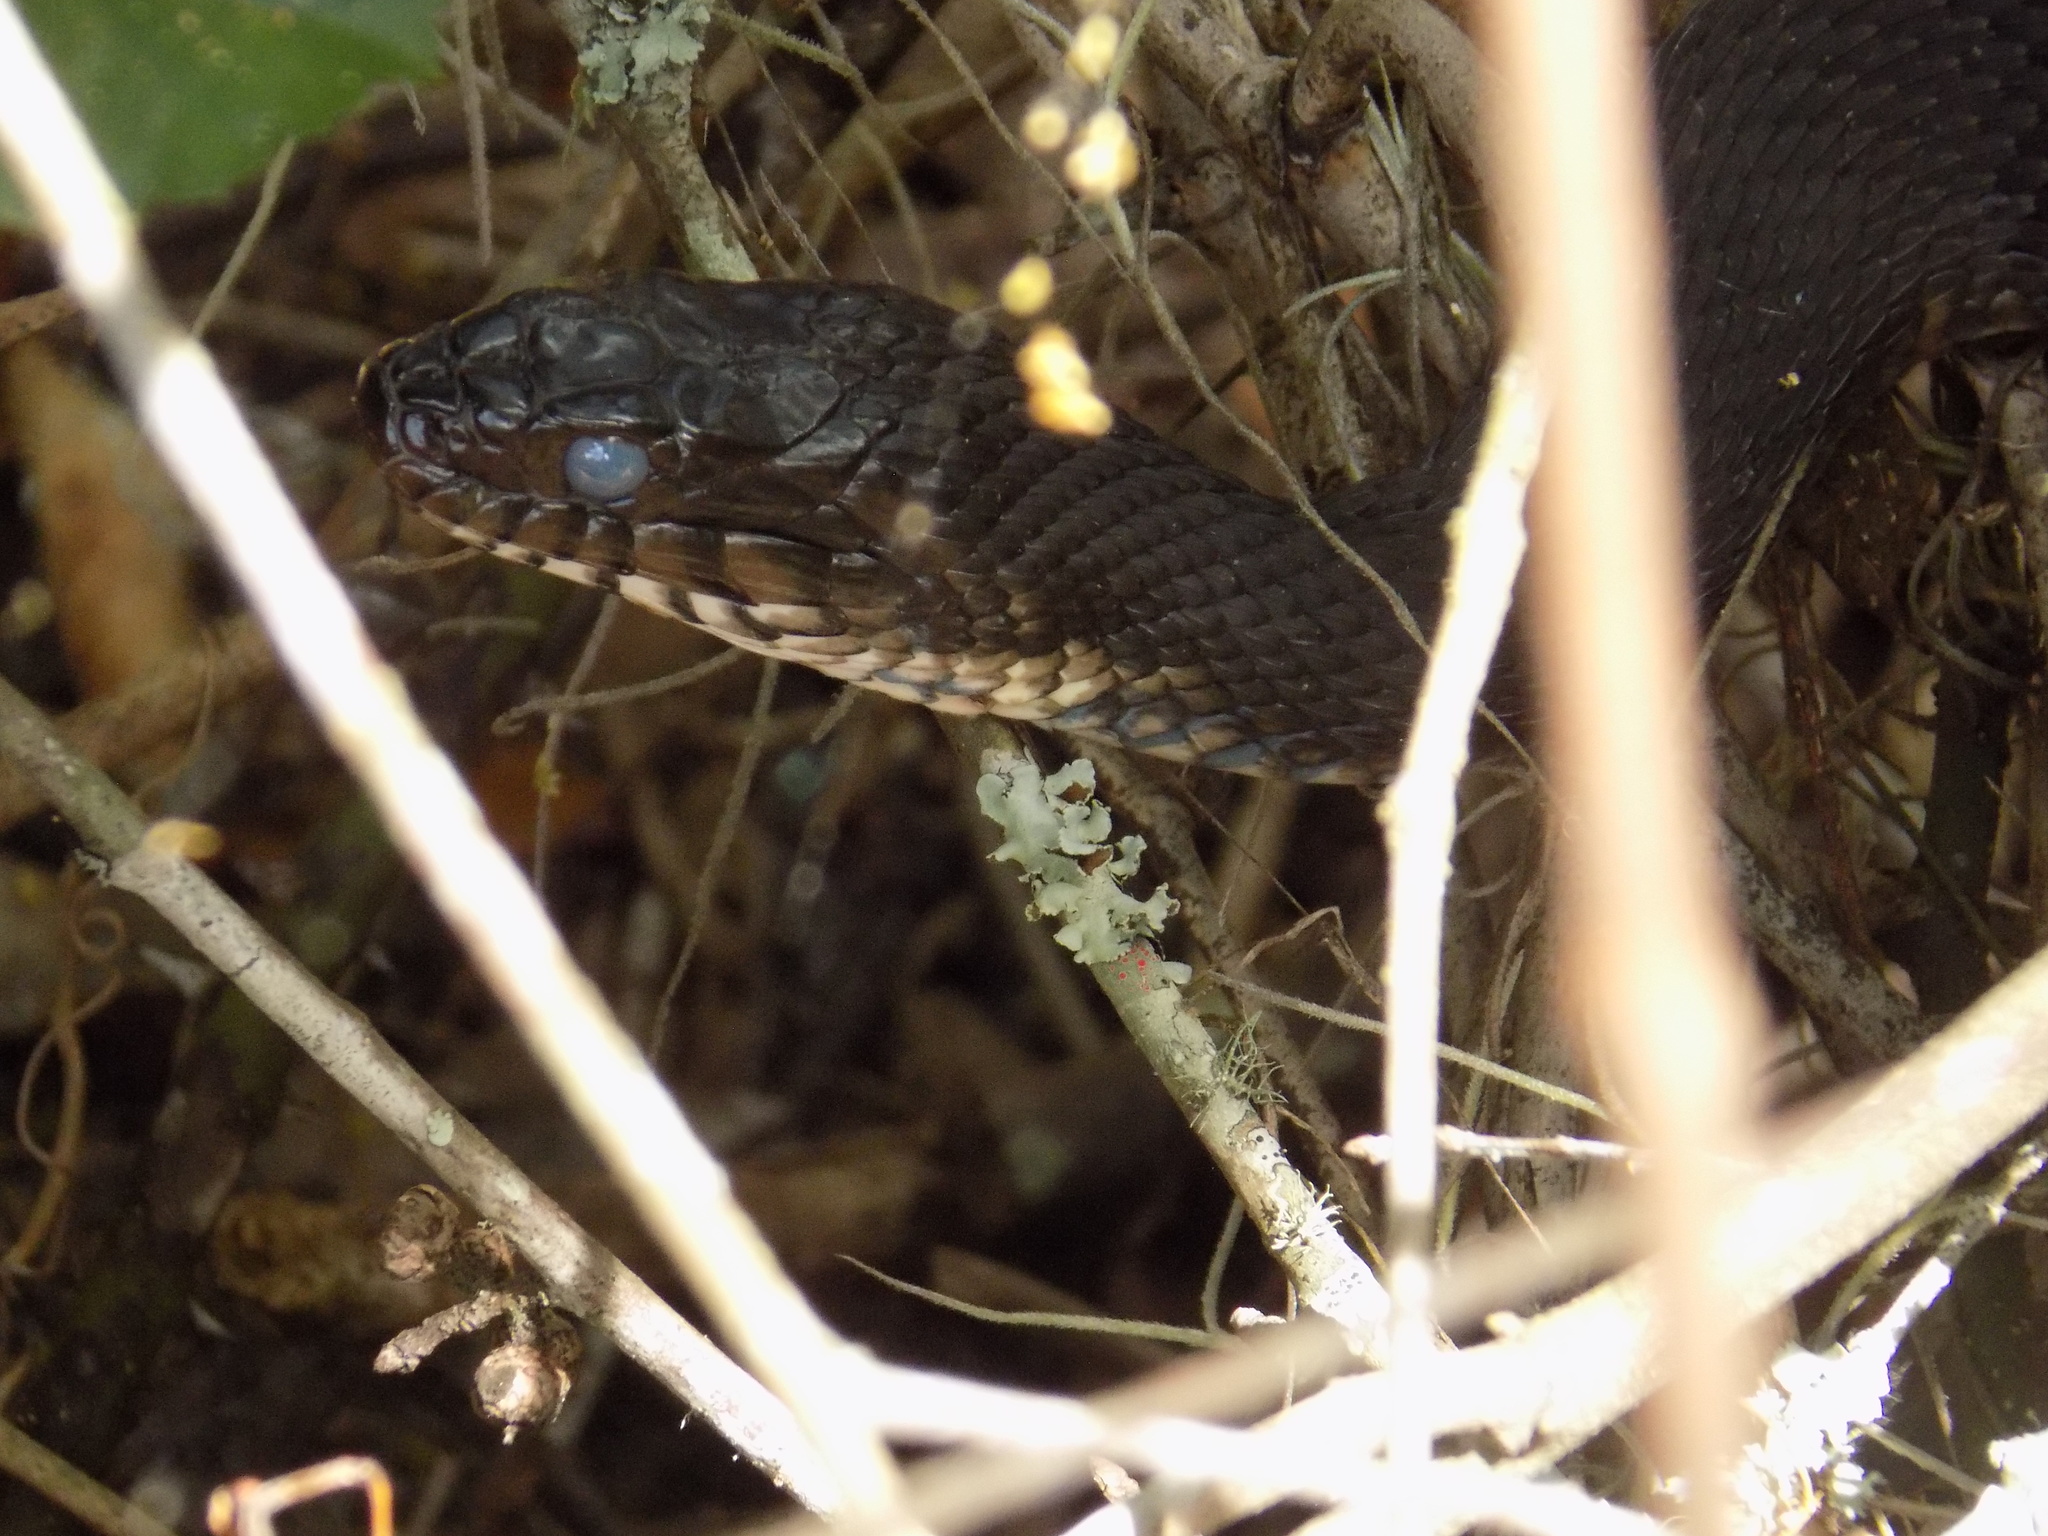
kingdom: Animalia
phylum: Chordata
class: Squamata
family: Colubridae
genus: Nerodia
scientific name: Nerodia fasciata
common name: Southern water snake
